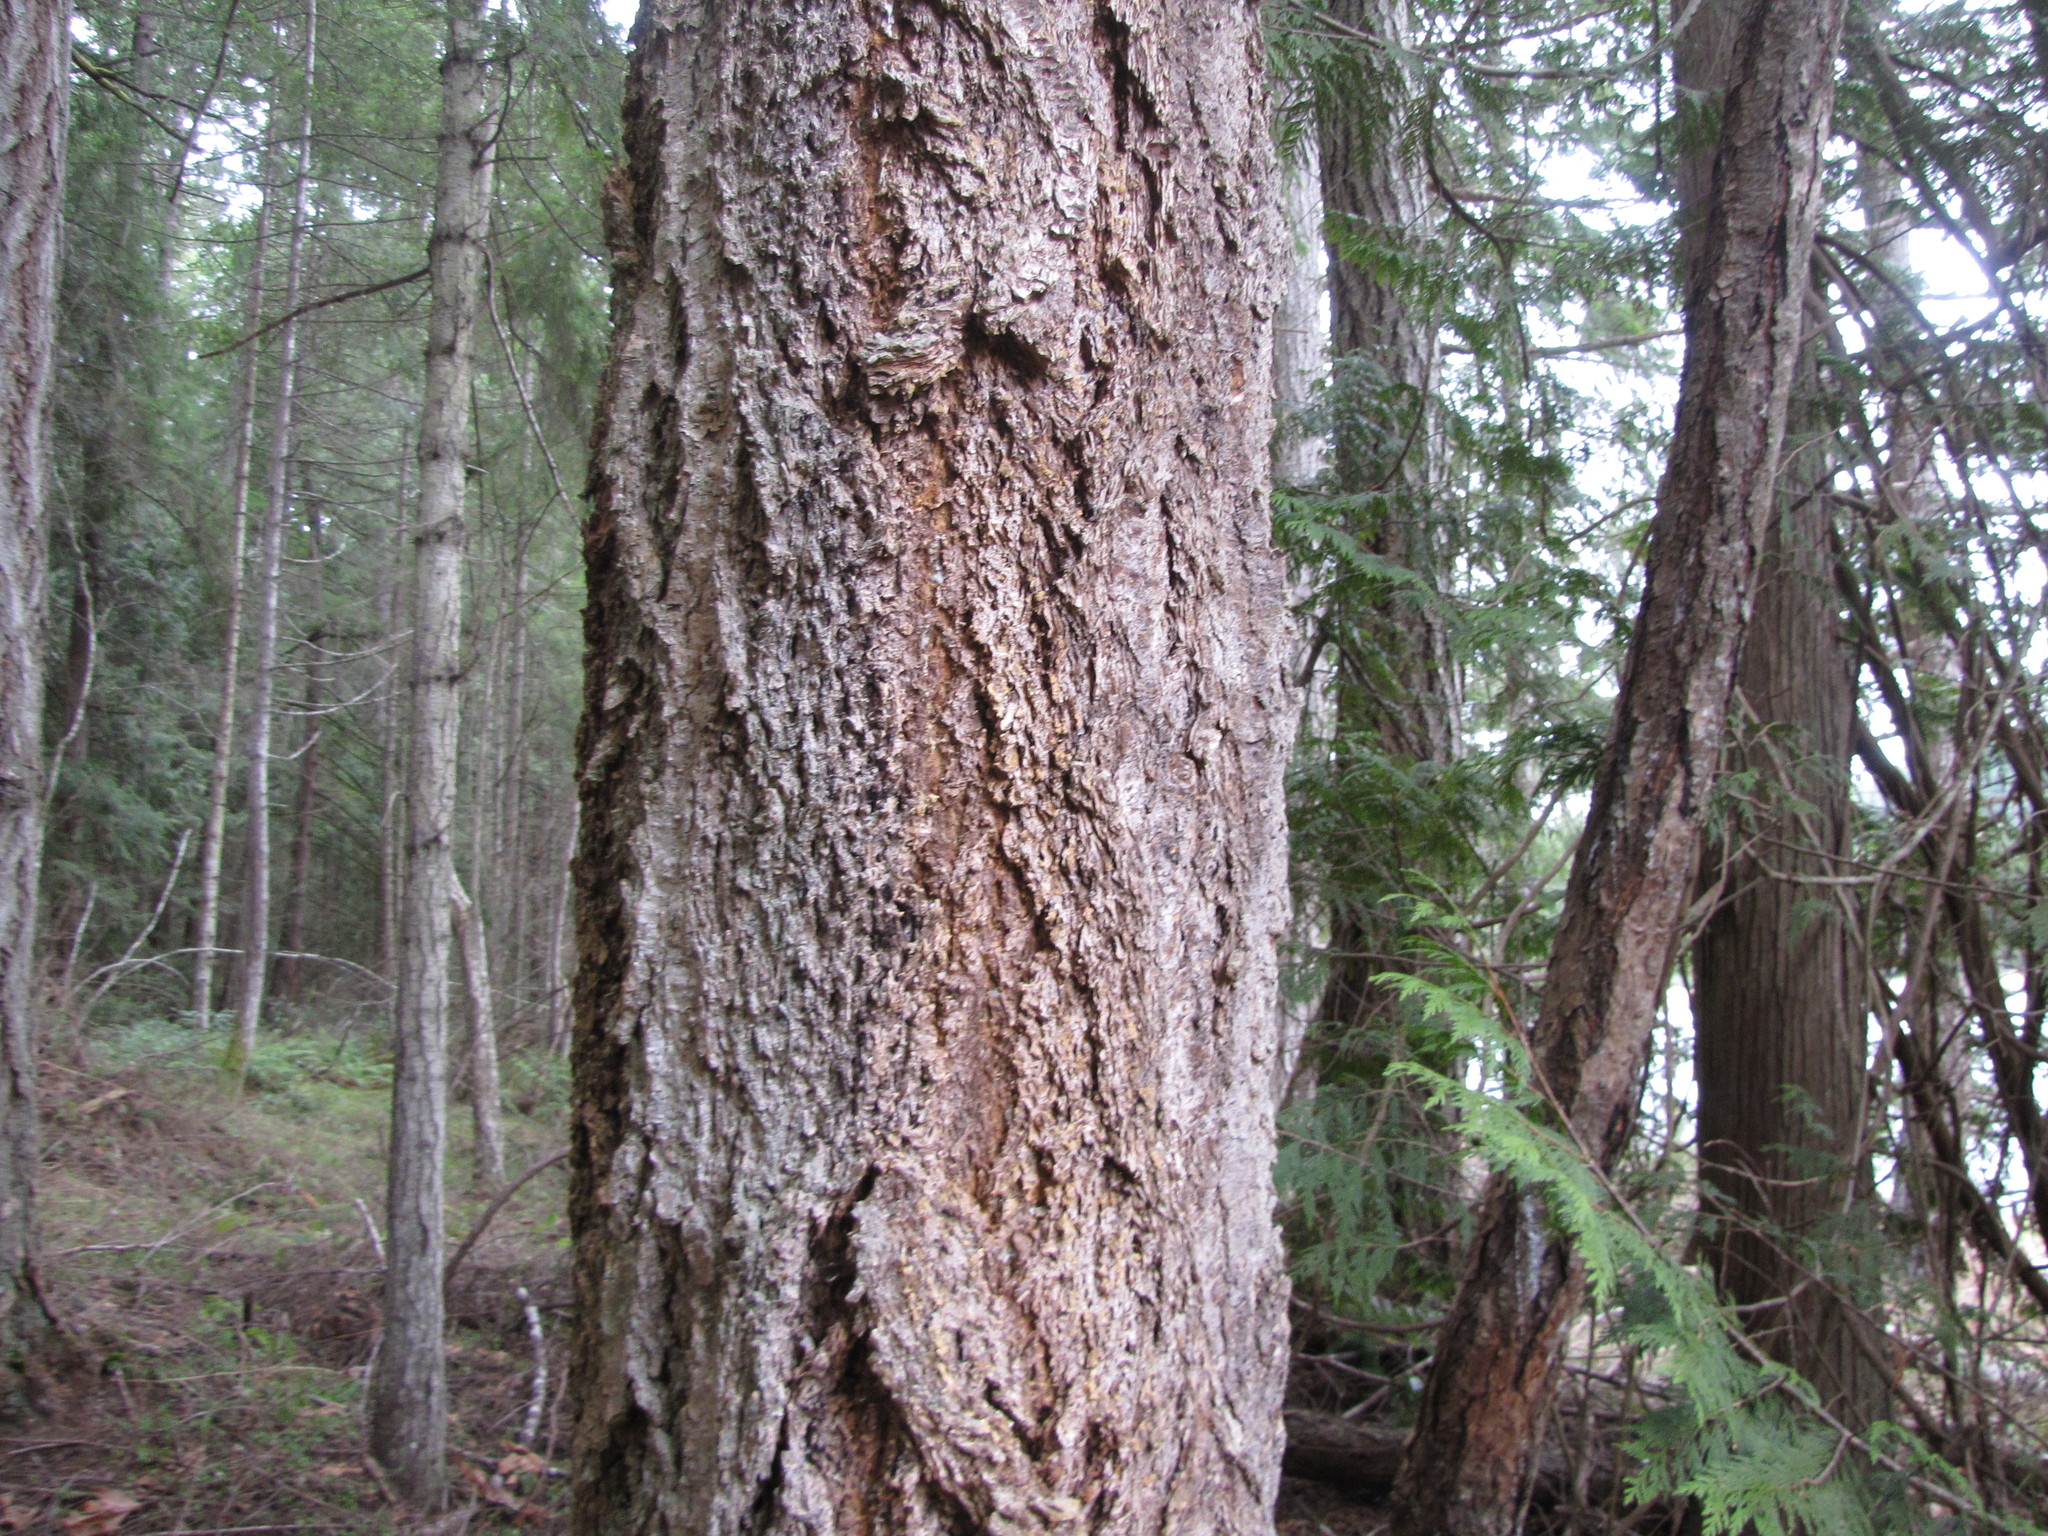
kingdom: Plantae
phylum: Tracheophyta
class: Pinopsida
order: Pinales
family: Pinaceae
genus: Pseudotsuga
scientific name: Pseudotsuga menziesii
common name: Douglas fir
